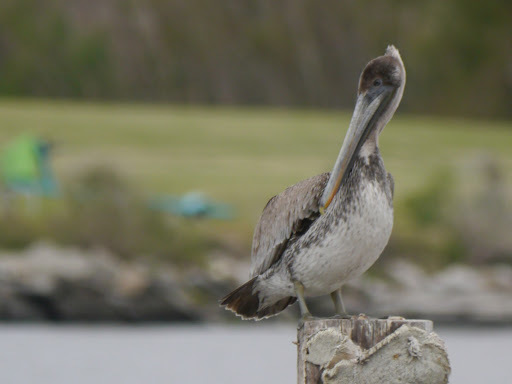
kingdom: Animalia
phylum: Chordata
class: Aves
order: Pelecaniformes
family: Pelecanidae
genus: Pelecanus
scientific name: Pelecanus occidentalis
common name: Brown pelican
